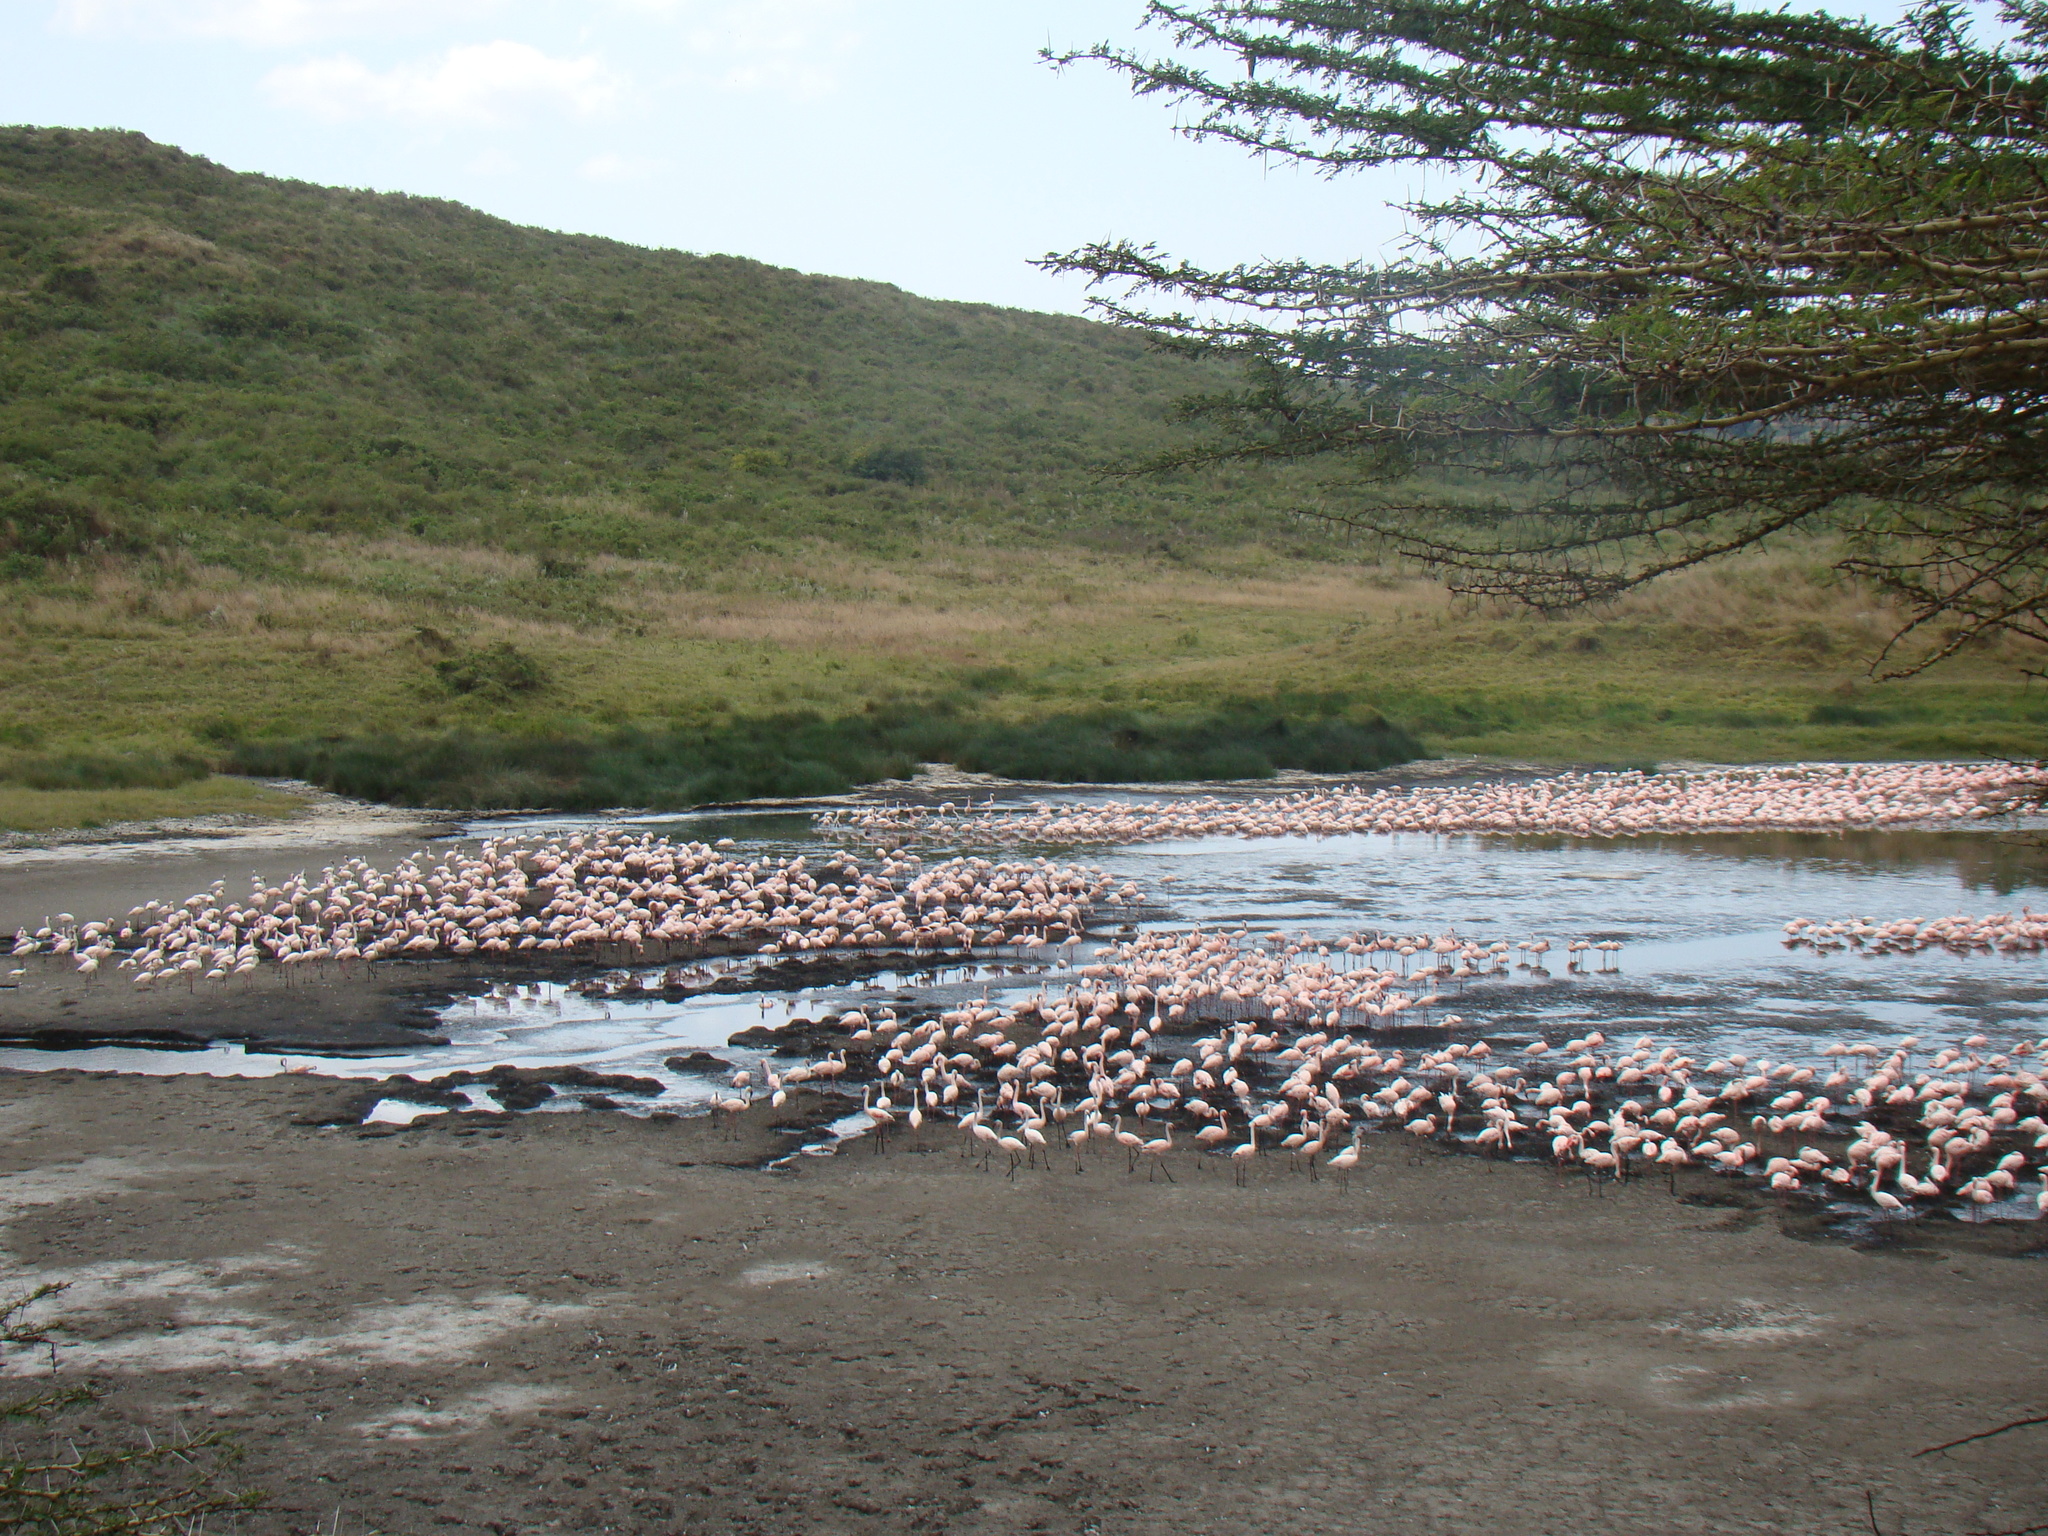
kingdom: Animalia
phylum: Chordata
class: Aves
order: Phoenicopteriformes
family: Phoenicopteridae
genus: Phoeniconaias
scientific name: Phoeniconaias minor
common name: Lesser flamingo
